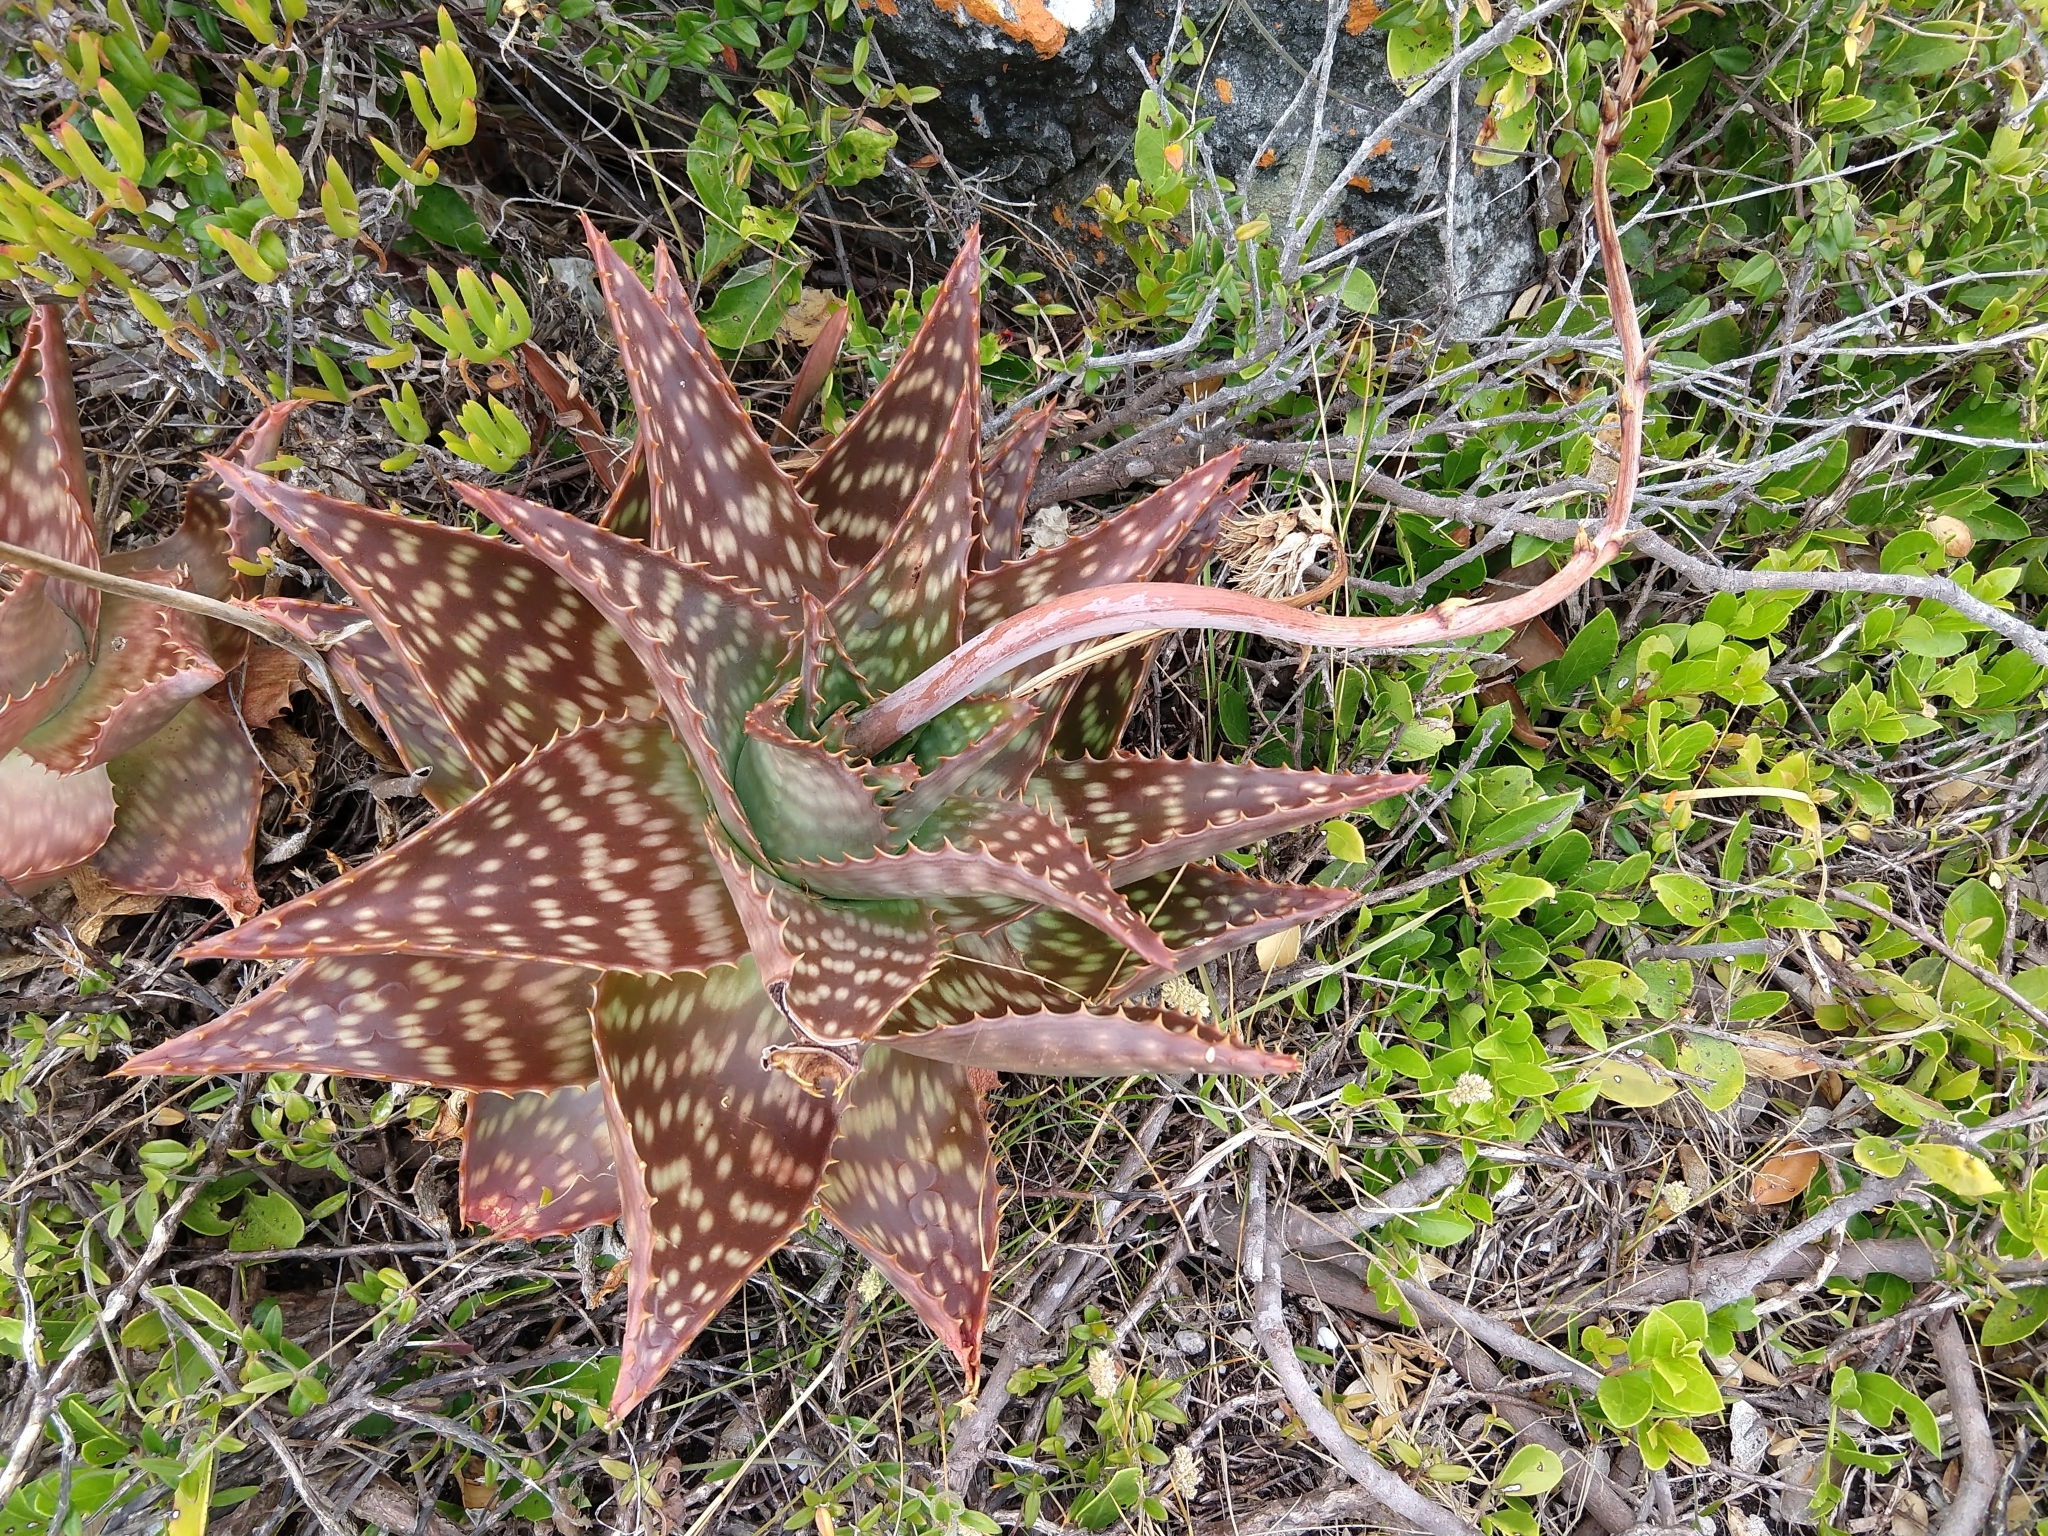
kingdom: Plantae
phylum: Tracheophyta
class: Liliopsida
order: Asparagales
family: Asphodelaceae
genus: Aloe
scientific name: Aloe maculata
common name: Broadleaf aloe
